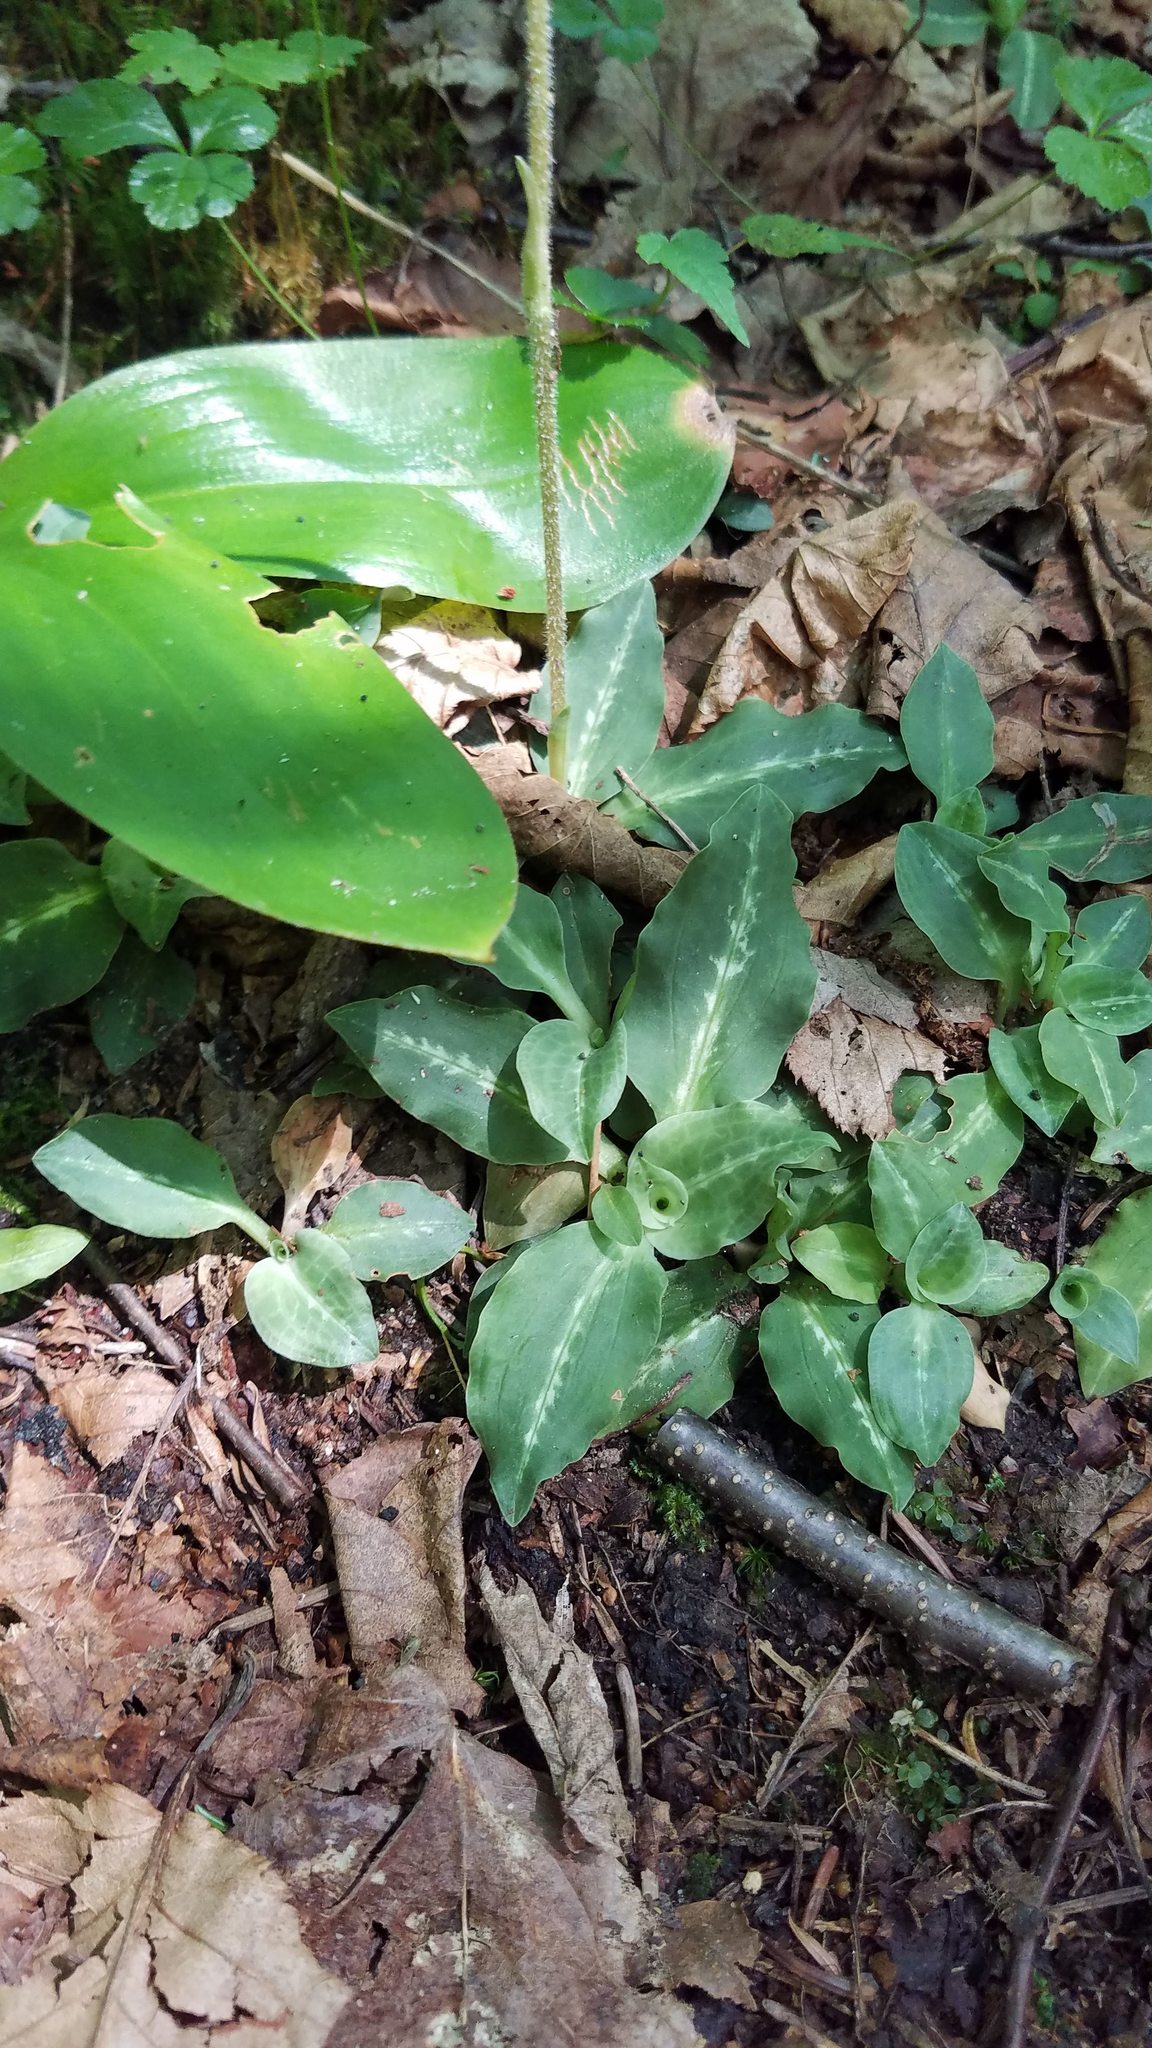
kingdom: Plantae
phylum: Tracheophyta
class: Liliopsida
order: Asparagales
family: Orchidaceae
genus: Goodyera
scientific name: Goodyera oblongifolia
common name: Giant rattlesnake-plantain
